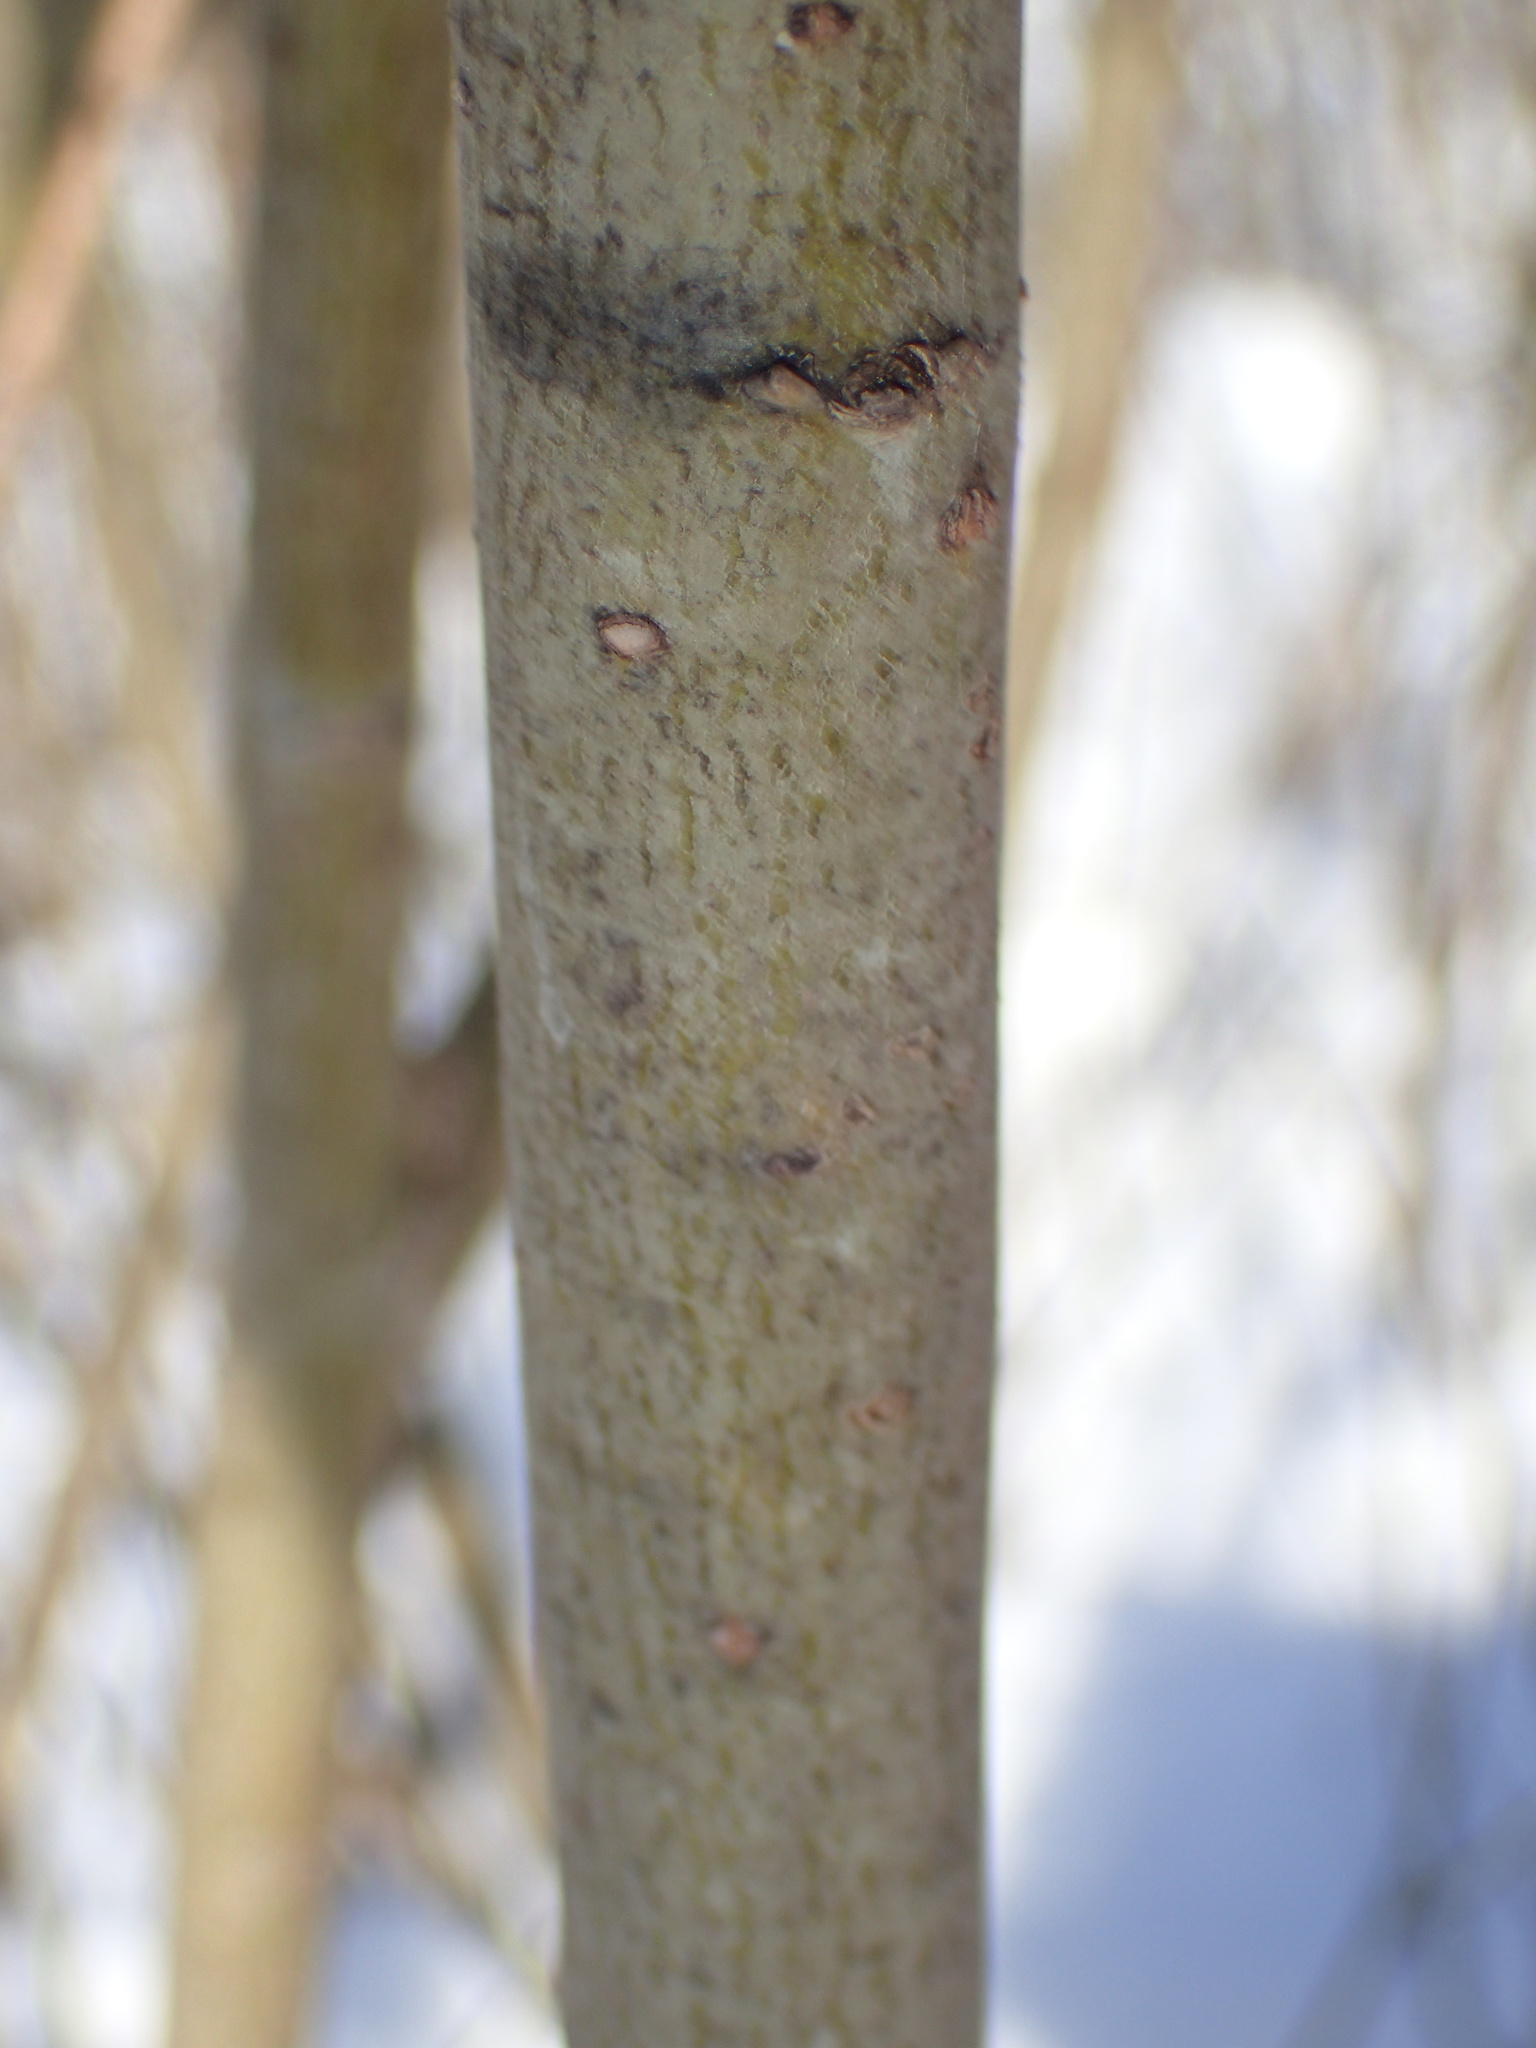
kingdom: Plantae
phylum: Tracheophyta
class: Magnoliopsida
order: Malpighiales
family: Salicaceae
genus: Salix
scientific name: Salix purpurea
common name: Purple willow
